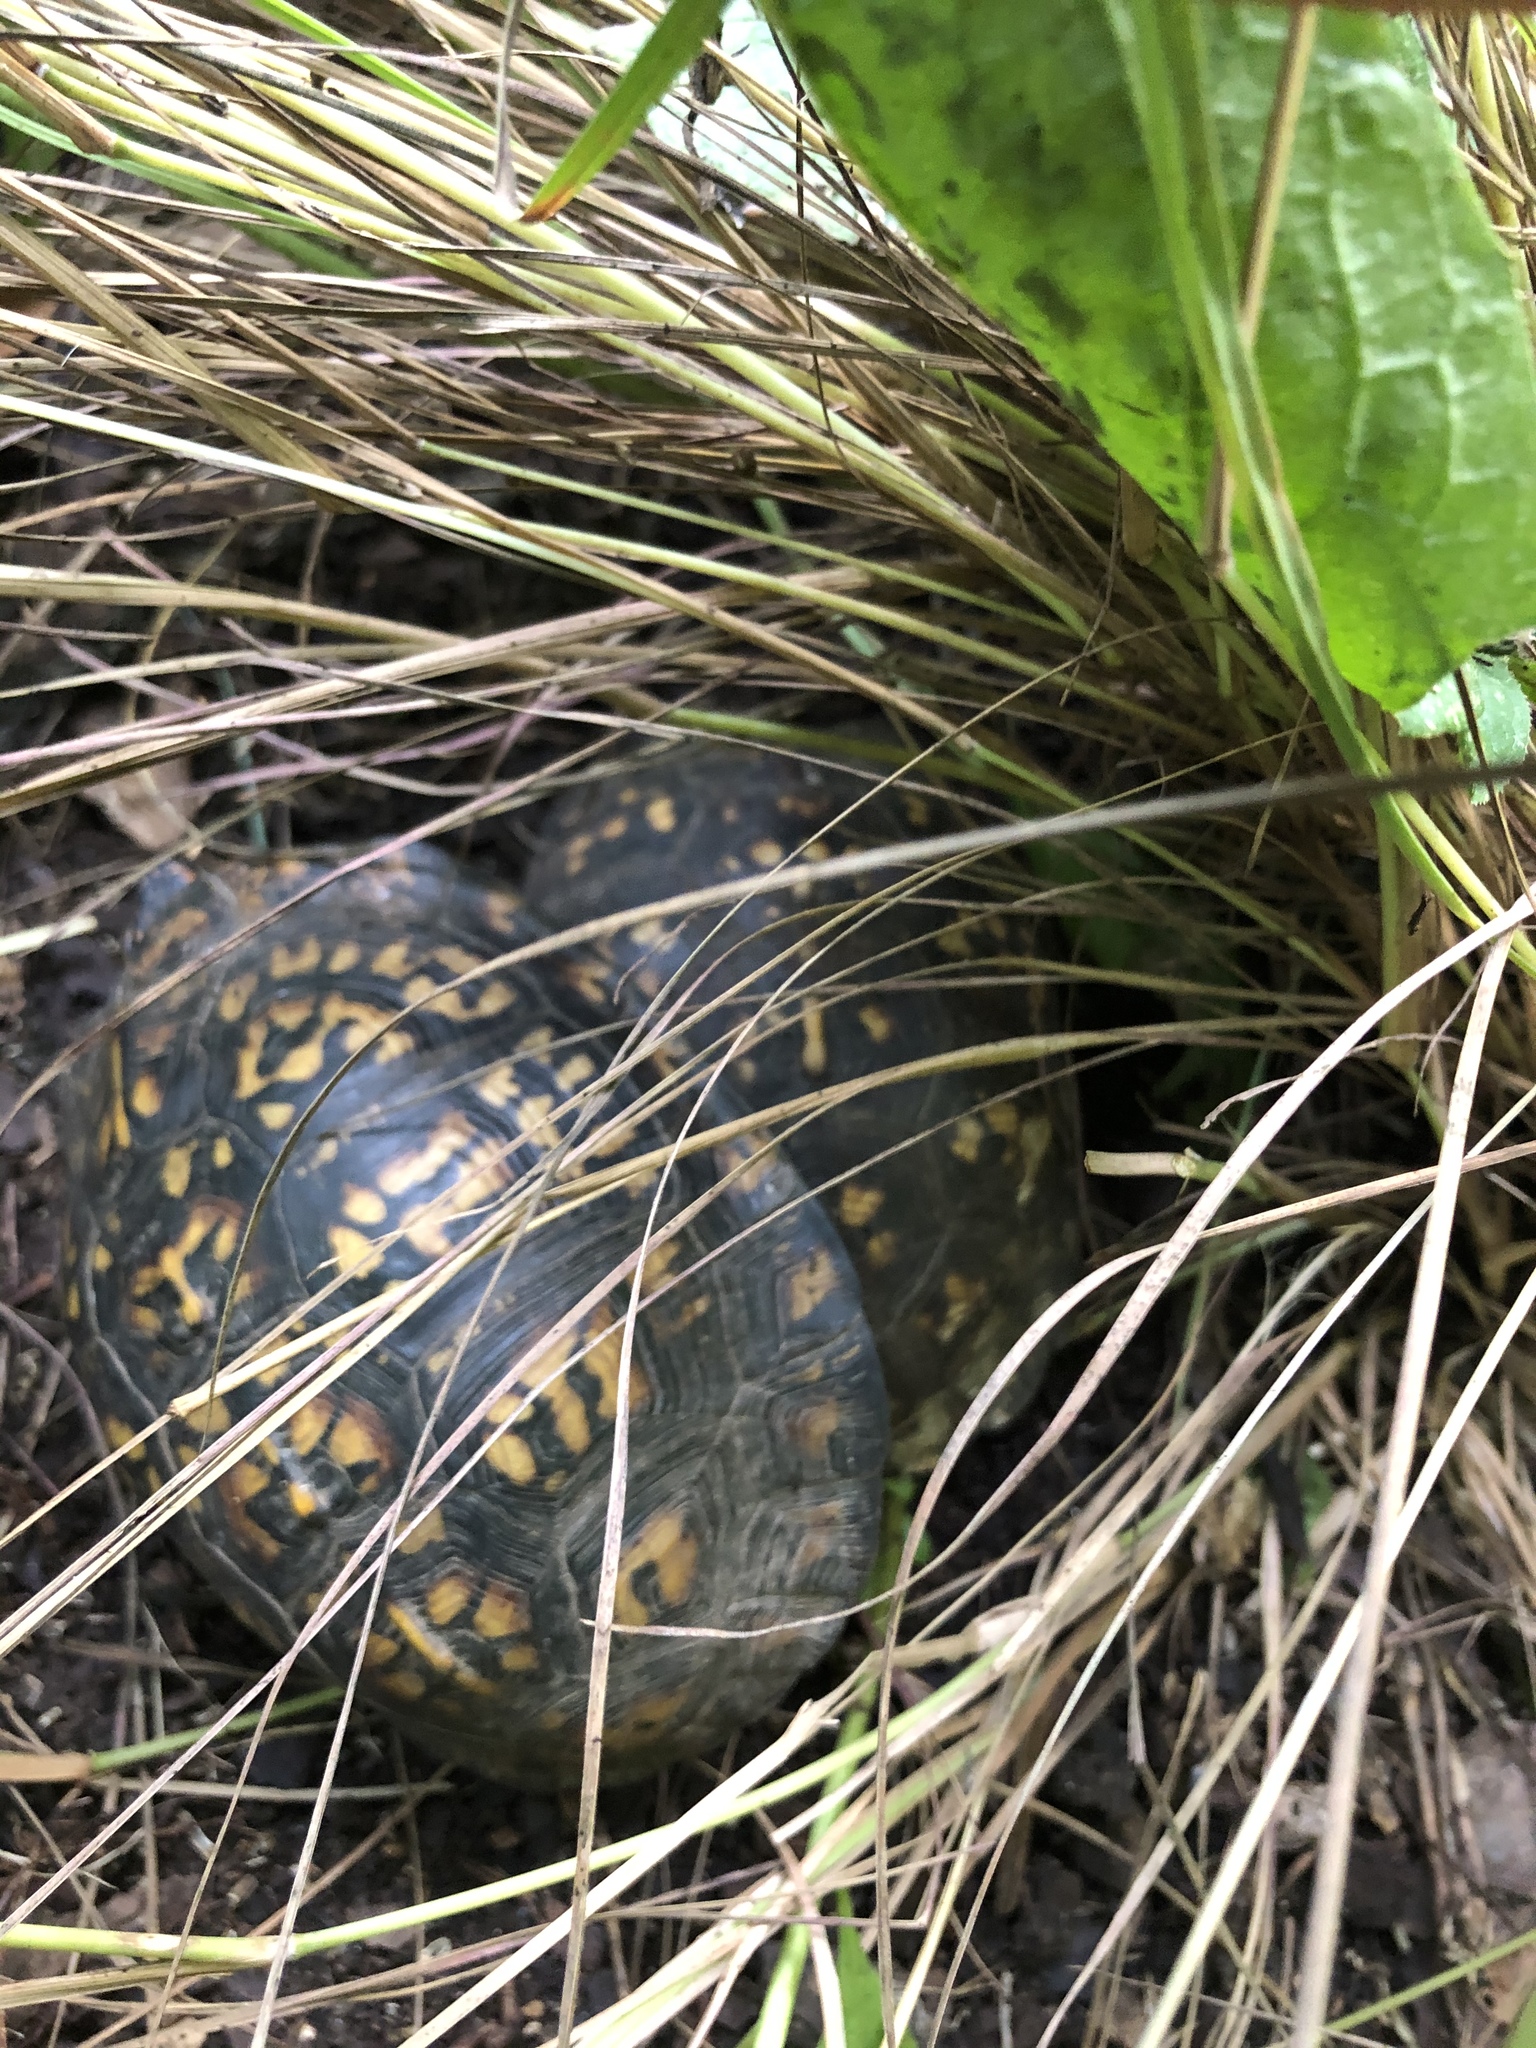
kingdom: Animalia
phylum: Chordata
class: Testudines
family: Emydidae
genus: Terrapene
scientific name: Terrapene carolina
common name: Common box turtle
